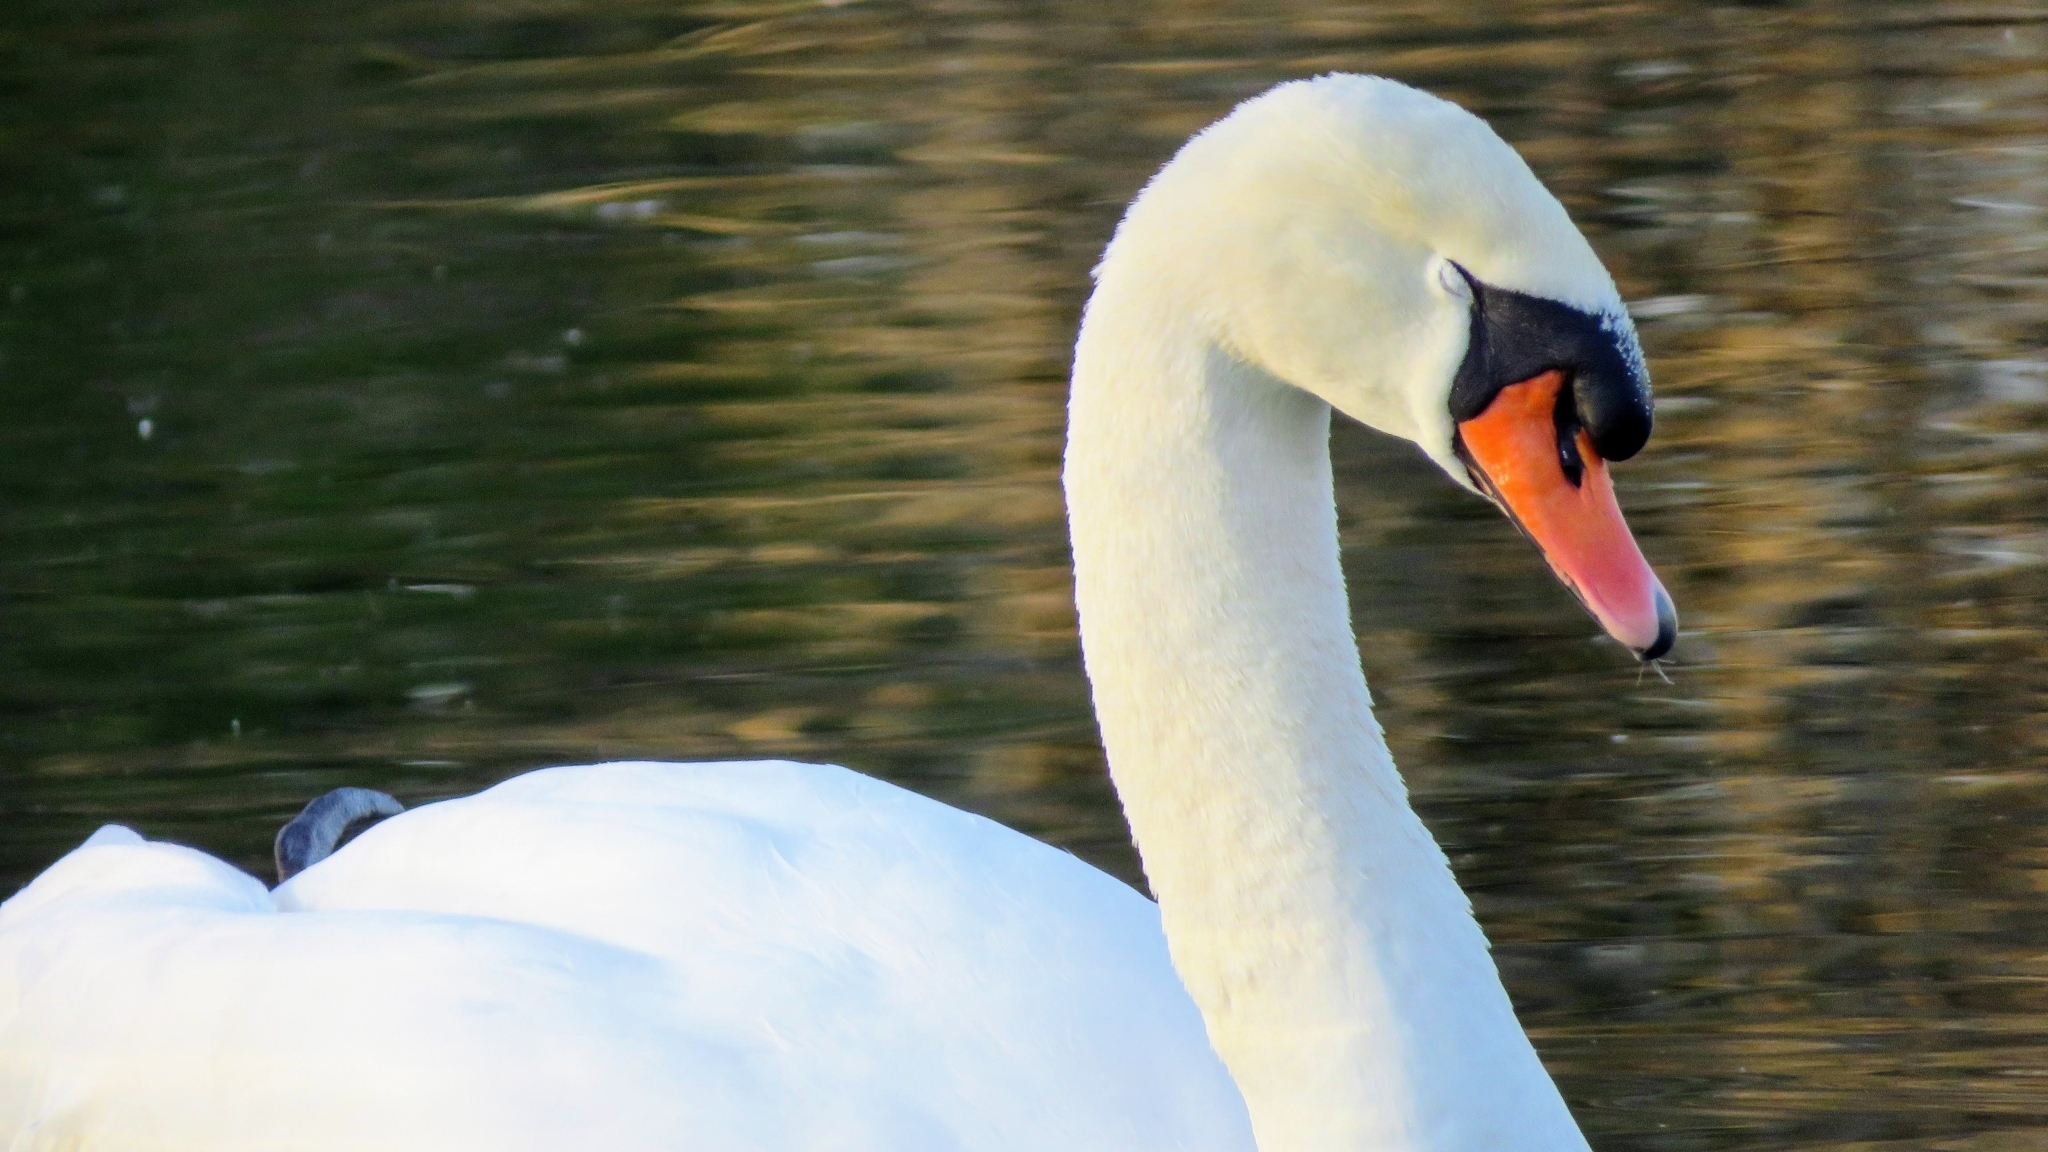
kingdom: Animalia
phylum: Chordata
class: Aves
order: Anseriformes
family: Anatidae
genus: Cygnus
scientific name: Cygnus olor
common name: Mute swan
